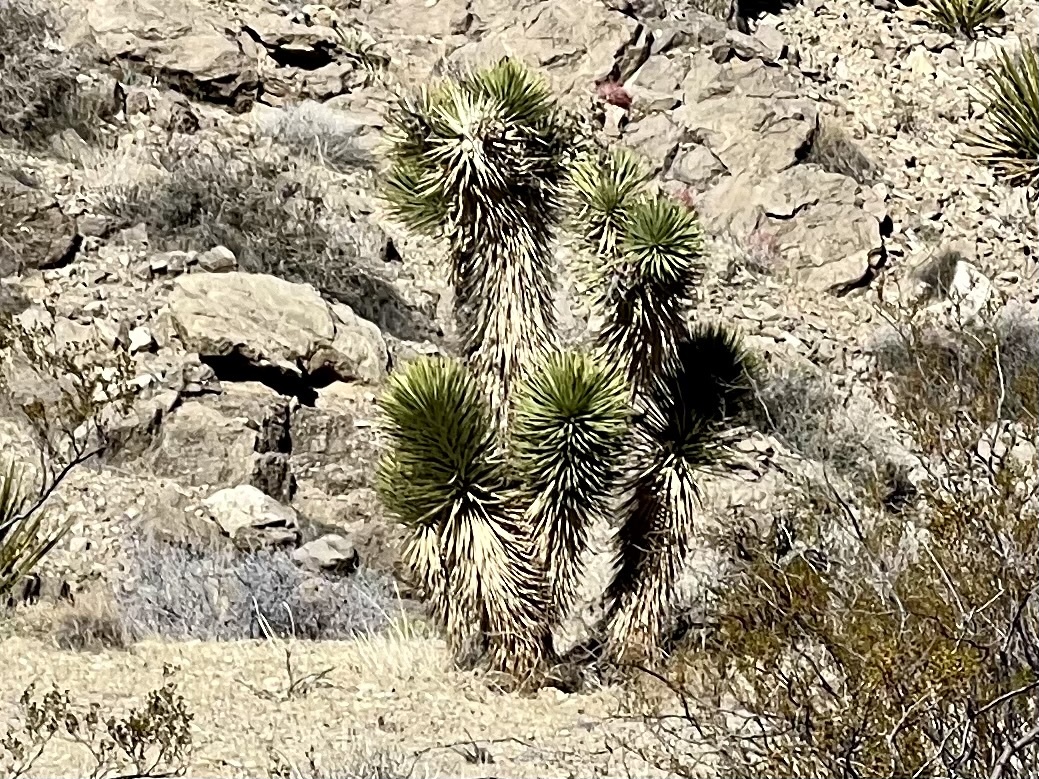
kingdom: Plantae
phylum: Tracheophyta
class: Liliopsida
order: Asparagales
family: Asparagaceae
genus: Yucca
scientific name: Yucca brevifolia
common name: Joshua tree
